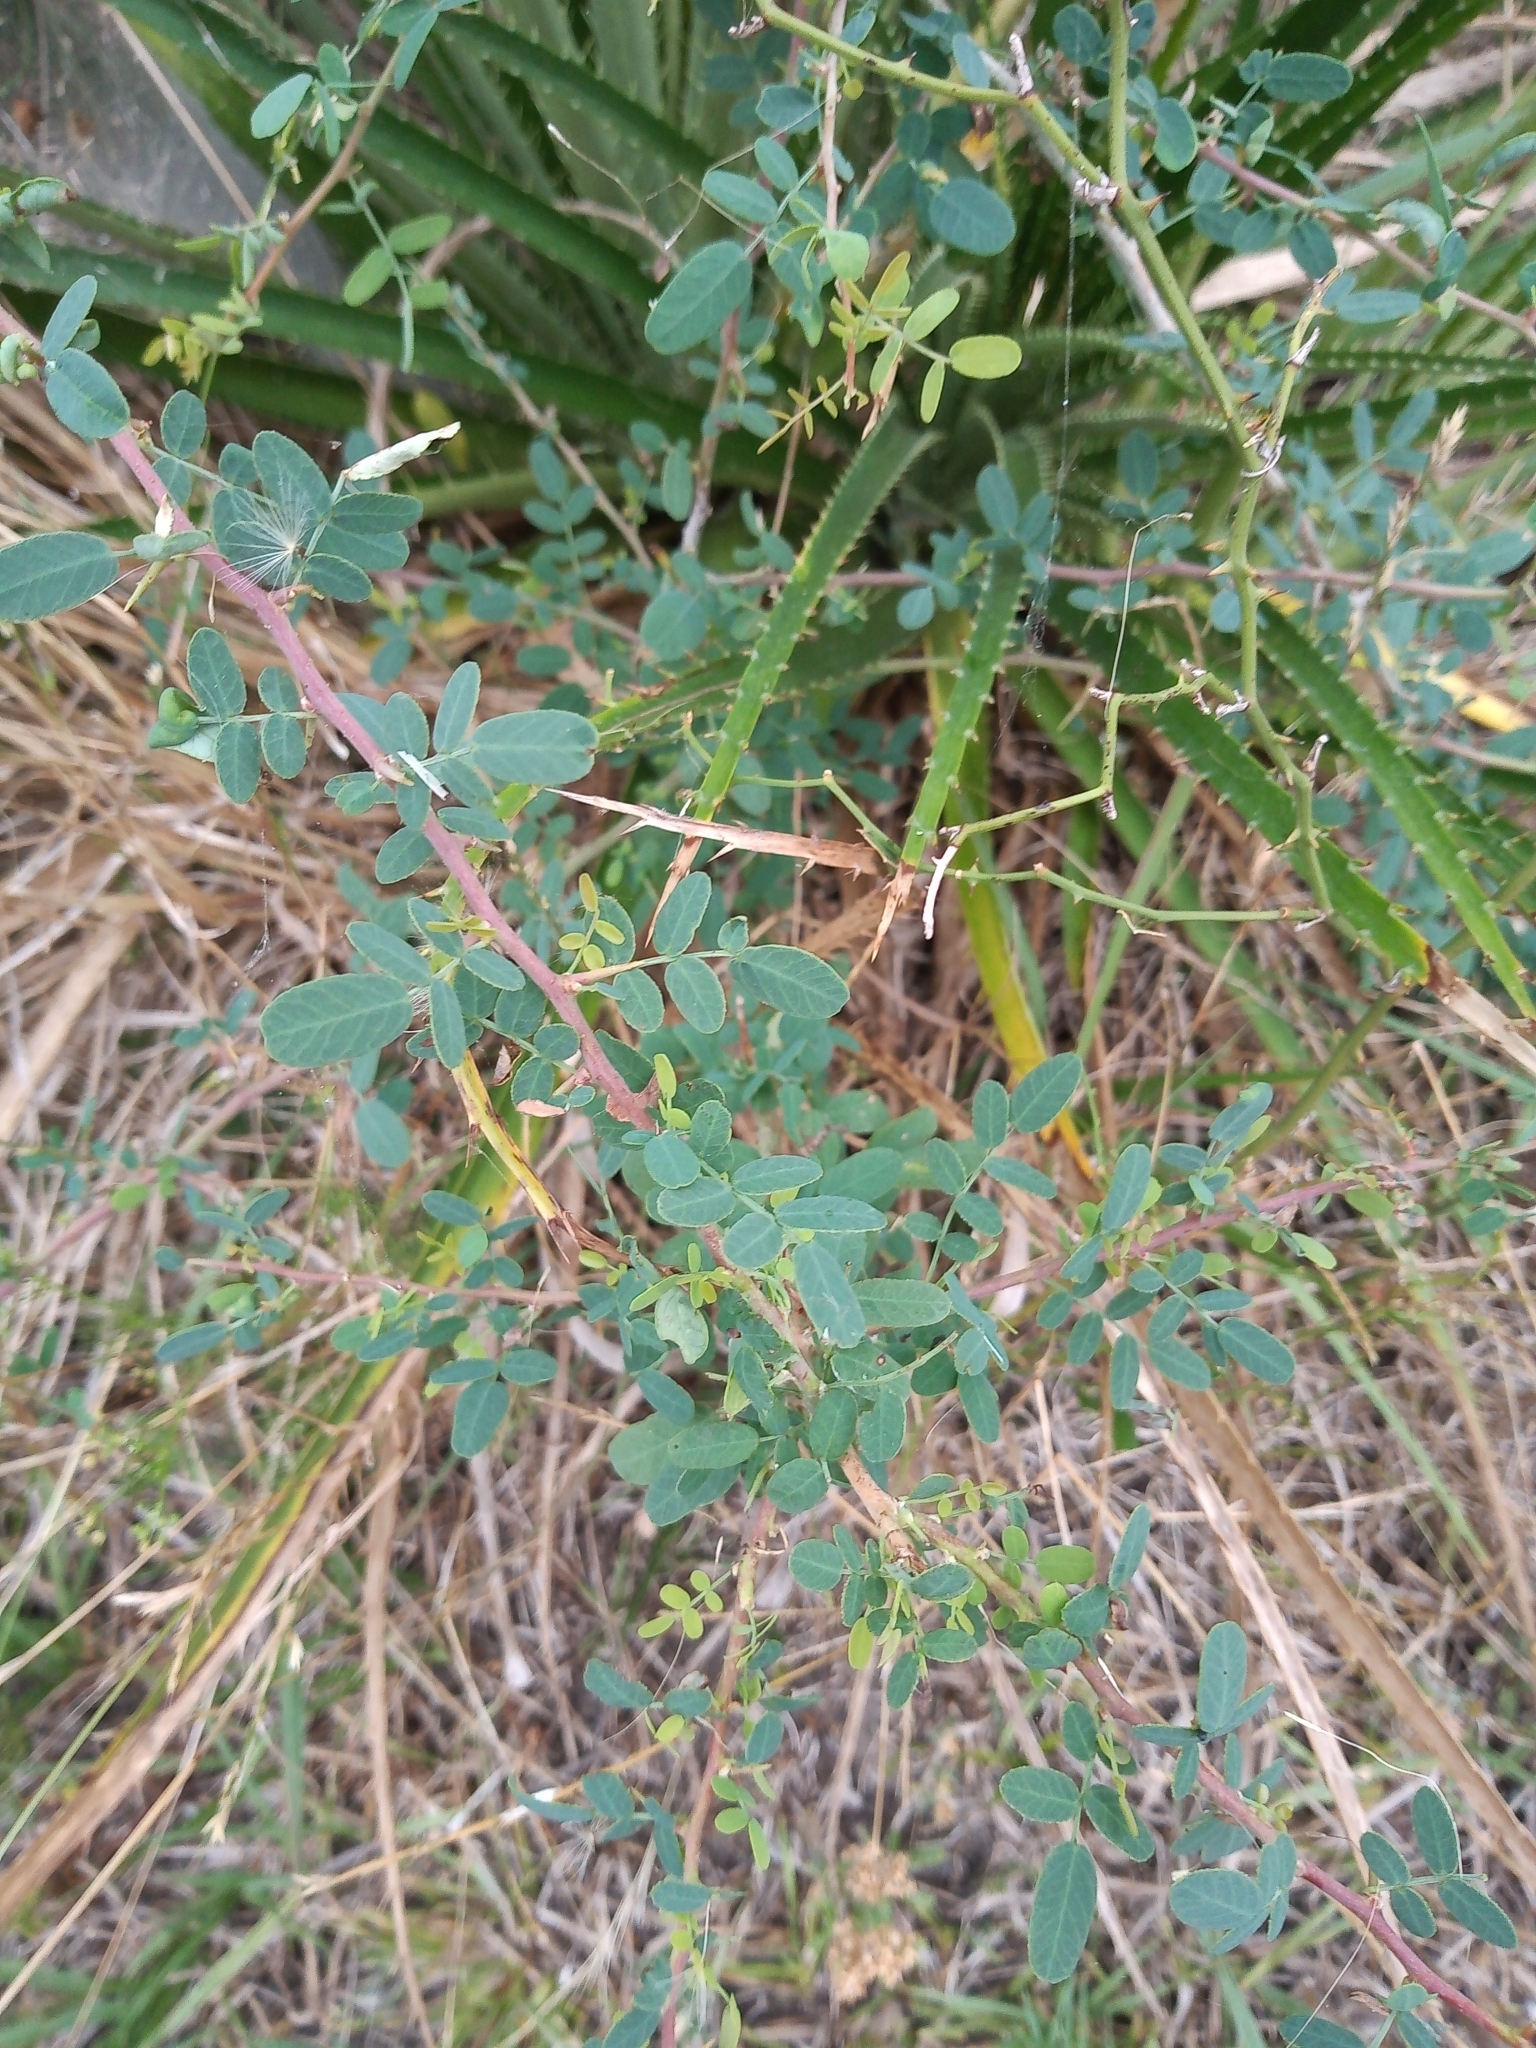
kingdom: Plantae
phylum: Tracheophyta
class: Magnoliopsida
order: Fabales
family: Fabaceae
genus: Geoffroea
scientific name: Geoffroea decorticans
